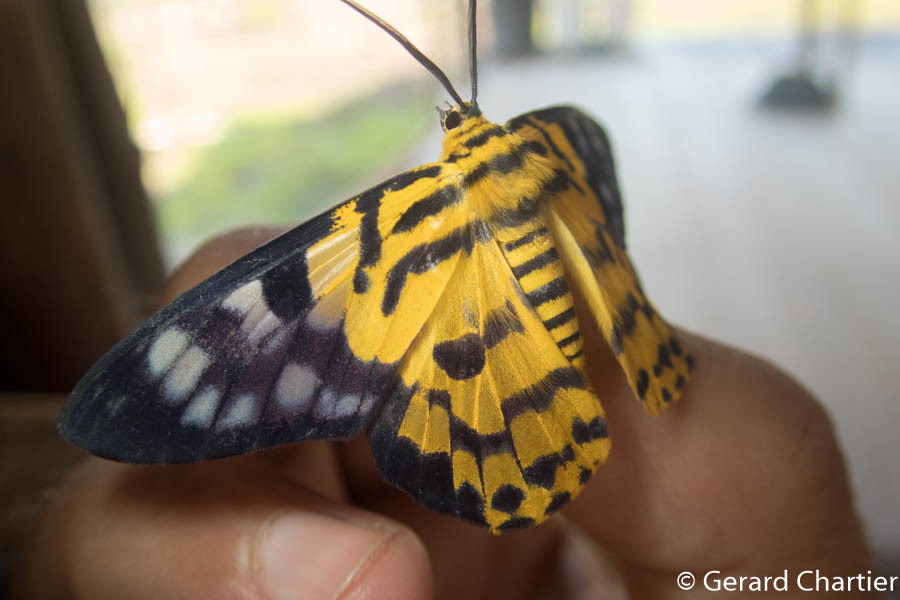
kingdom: Animalia
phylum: Arthropoda
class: Insecta
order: Lepidoptera
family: Geometridae
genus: Dysphania
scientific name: Dysphania subrepleta
